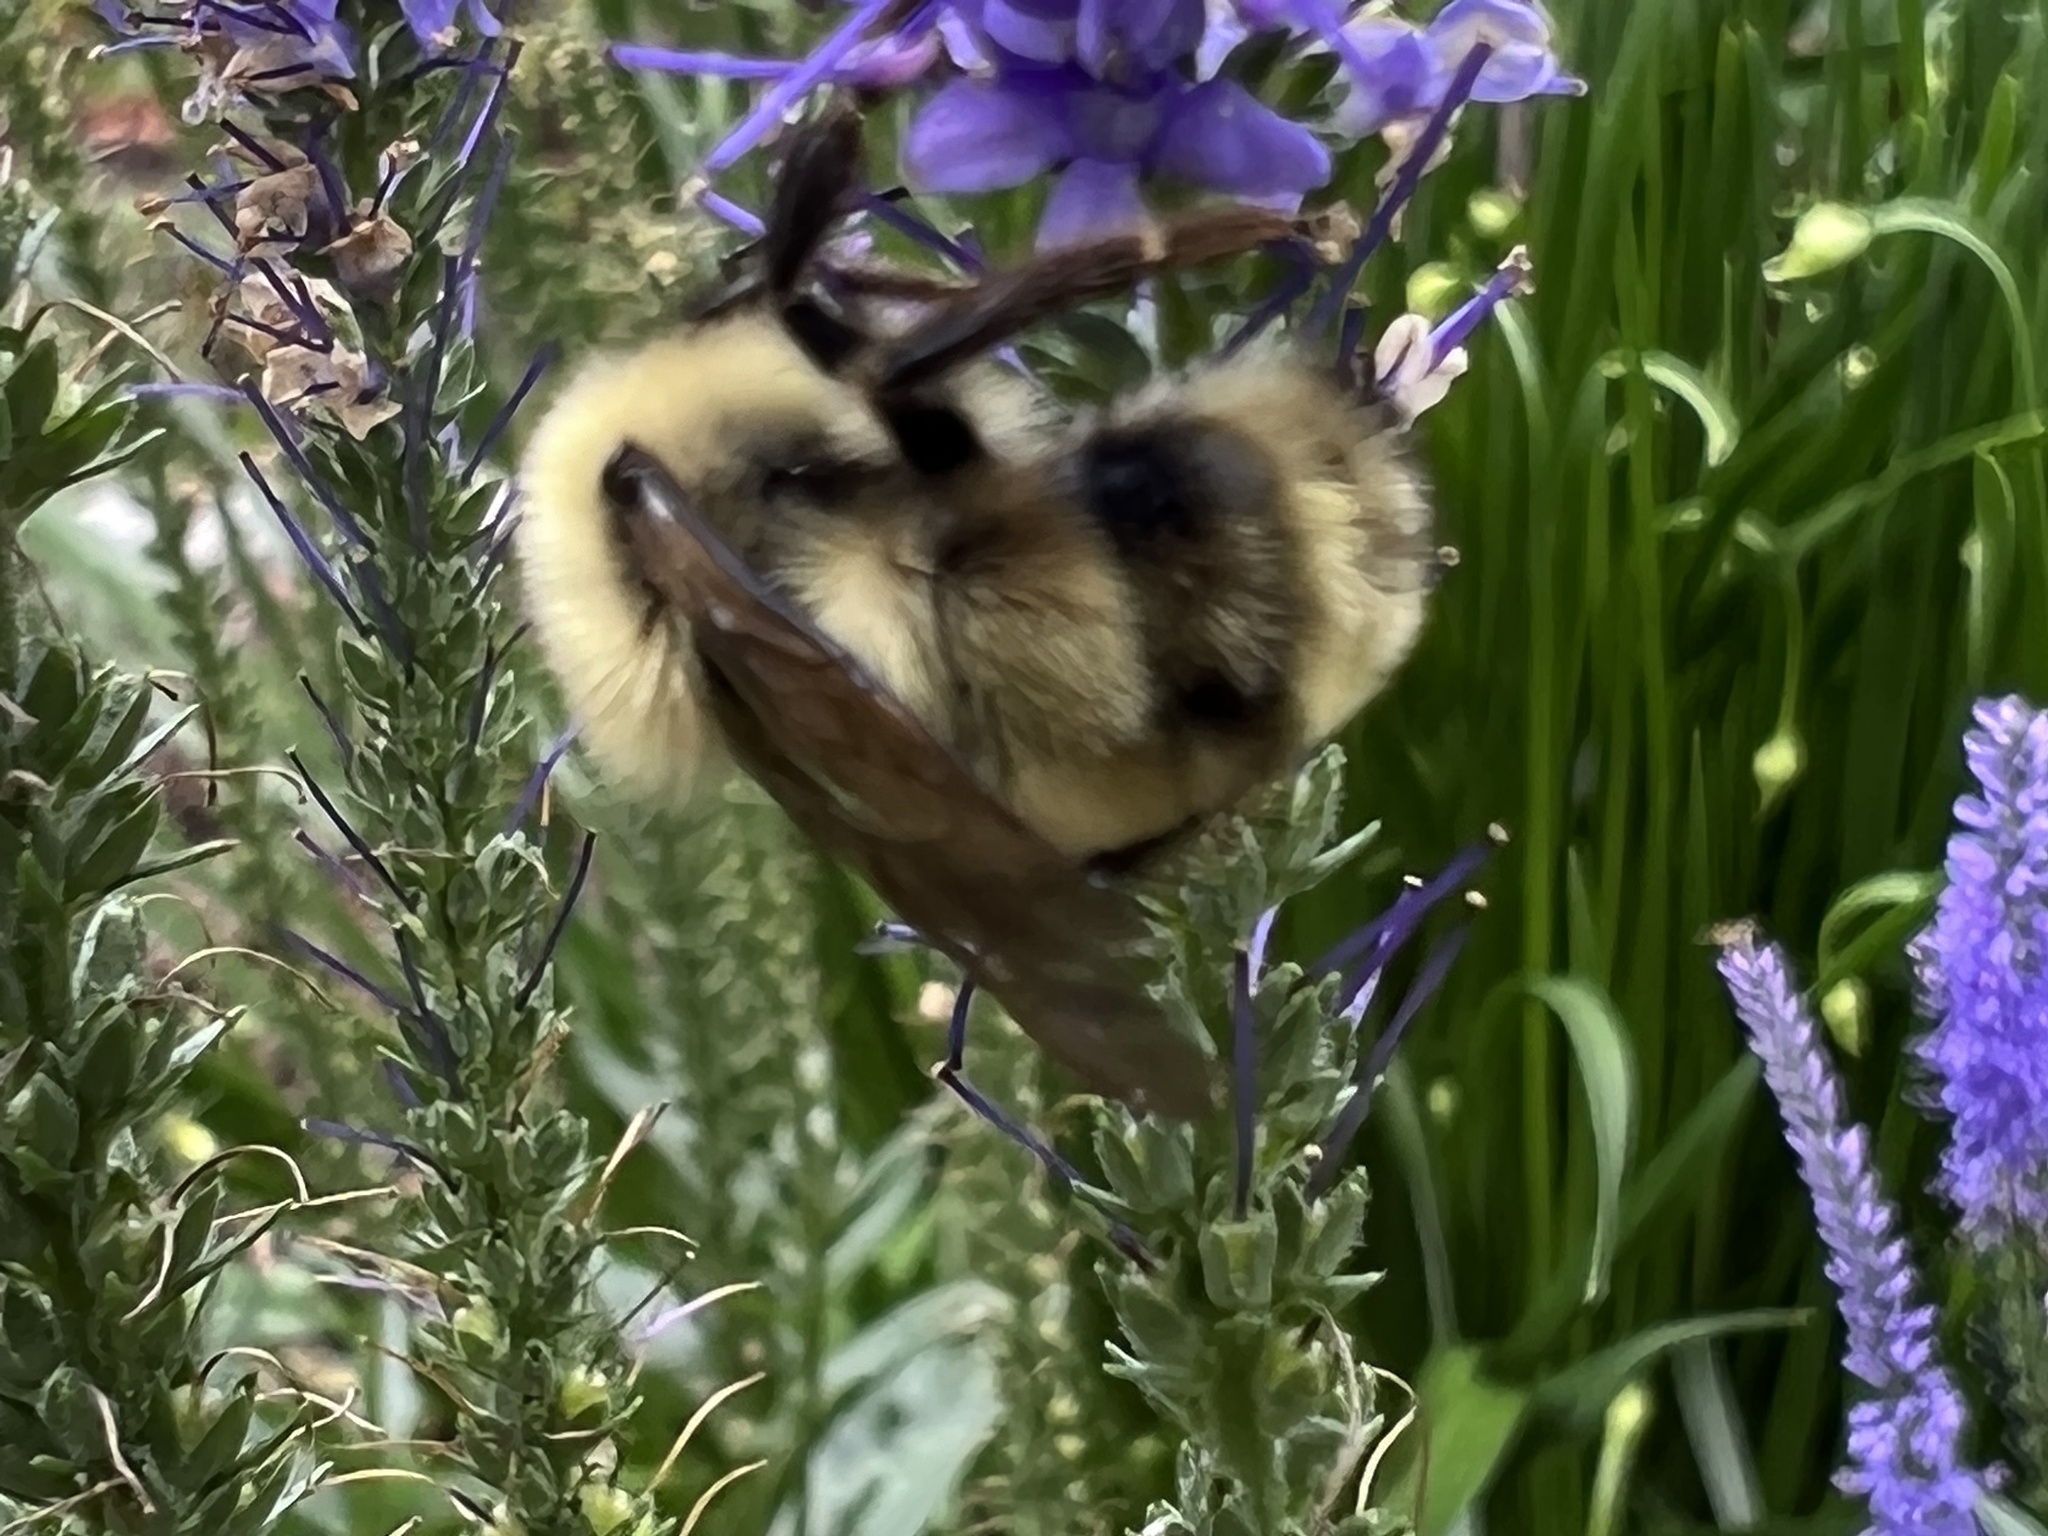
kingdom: Animalia
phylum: Arthropoda
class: Insecta
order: Hymenoptera
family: Apidae
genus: Bombus
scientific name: Bombus bimaculatus
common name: Two-spotted bumble bee
